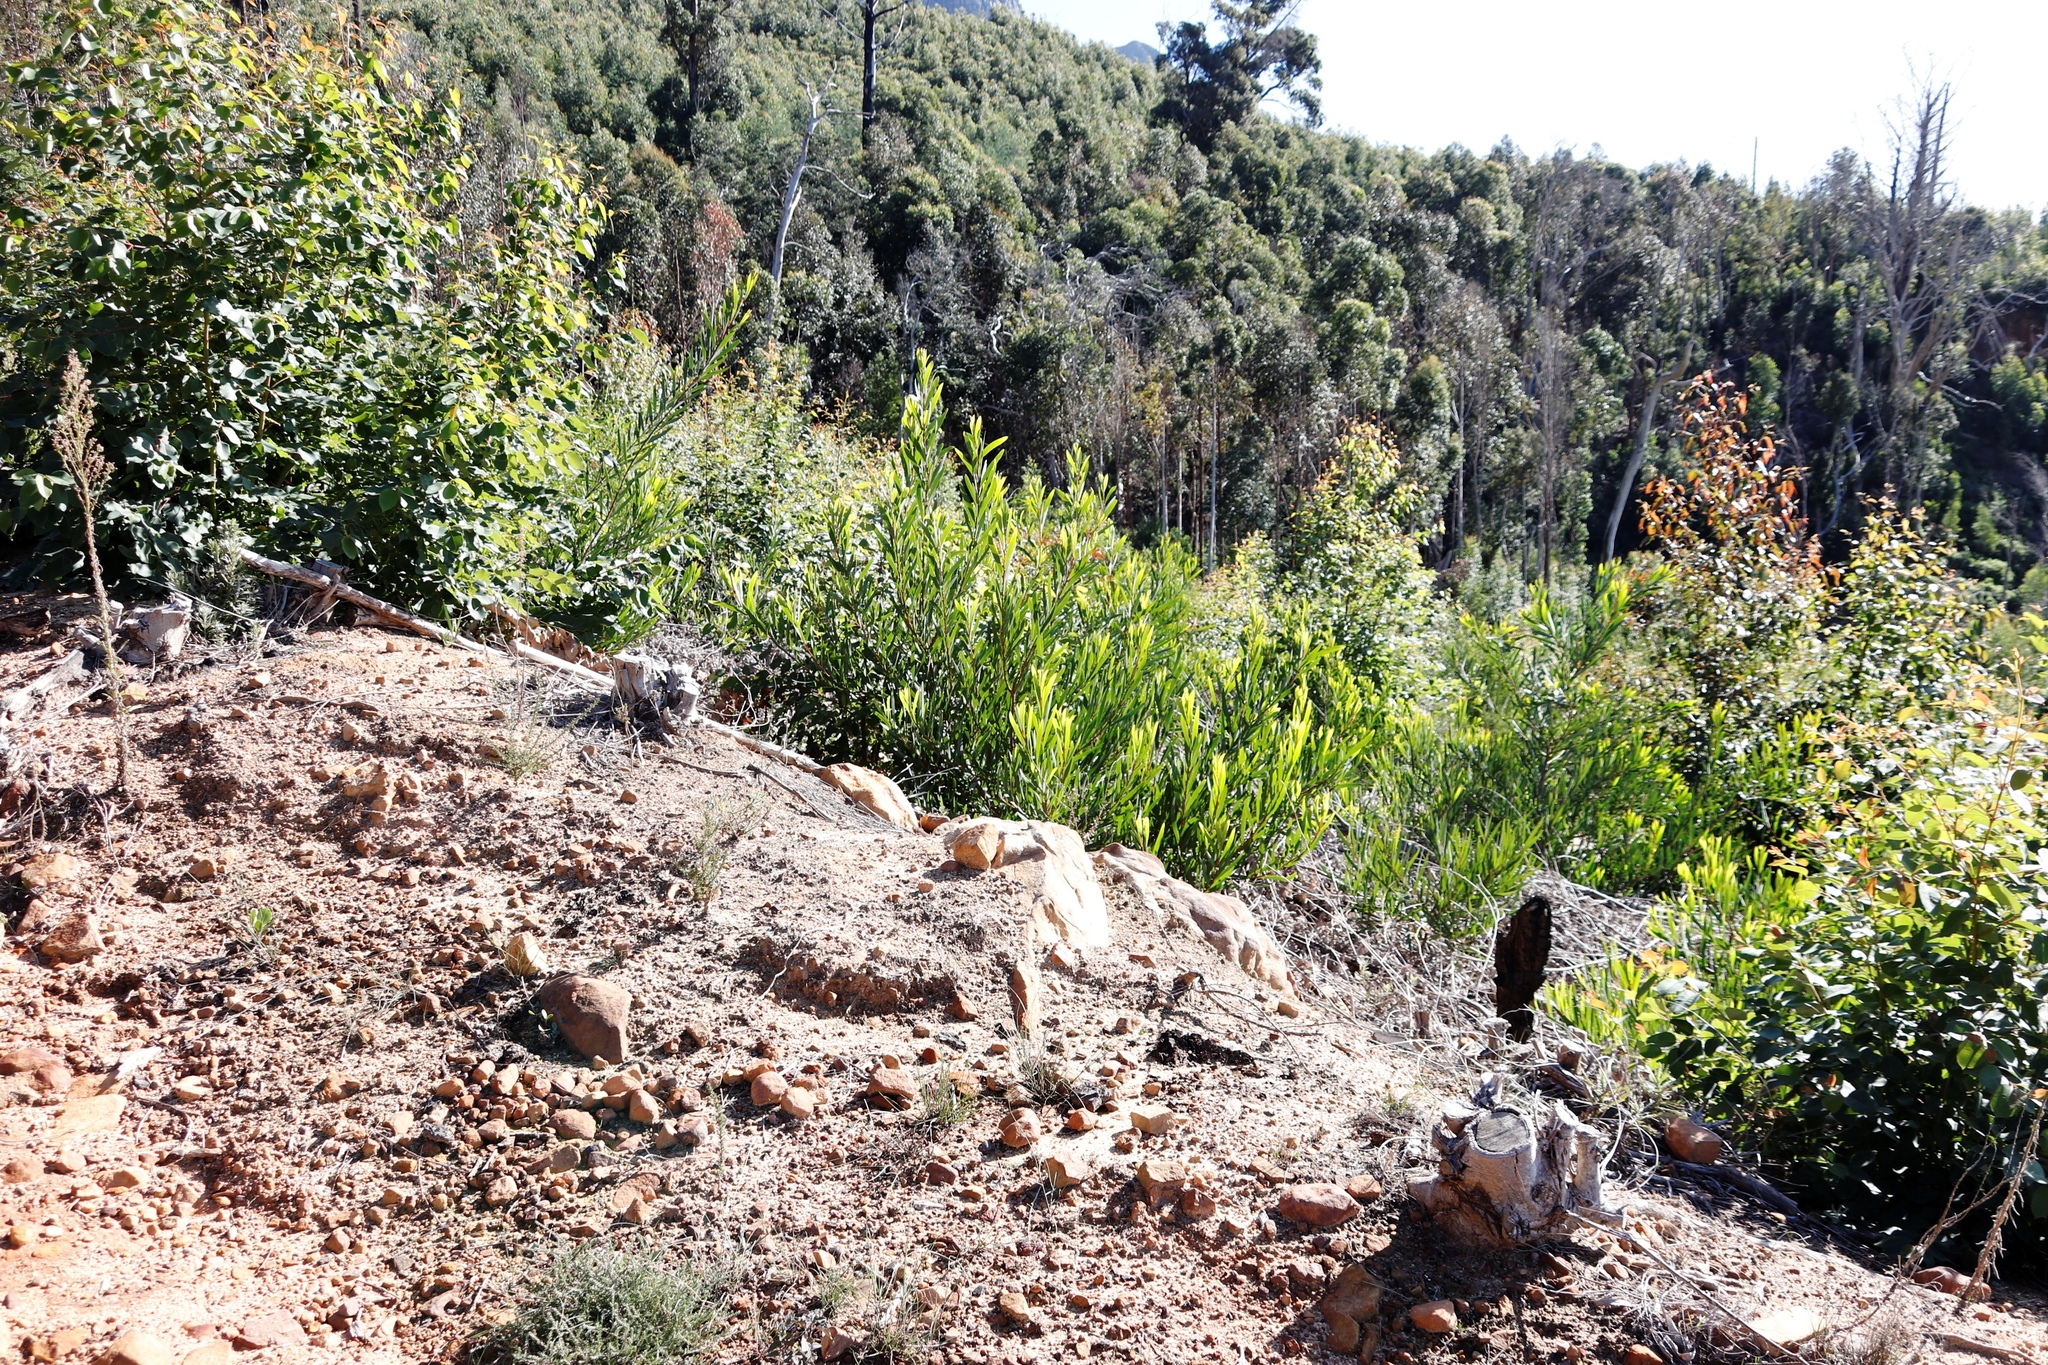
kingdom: Plantae
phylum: Tracheophyta
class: Magnoliopsida
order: Fabales
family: Fabaceae
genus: Acacia
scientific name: Acacia longifolia
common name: Sydney golden wattle
